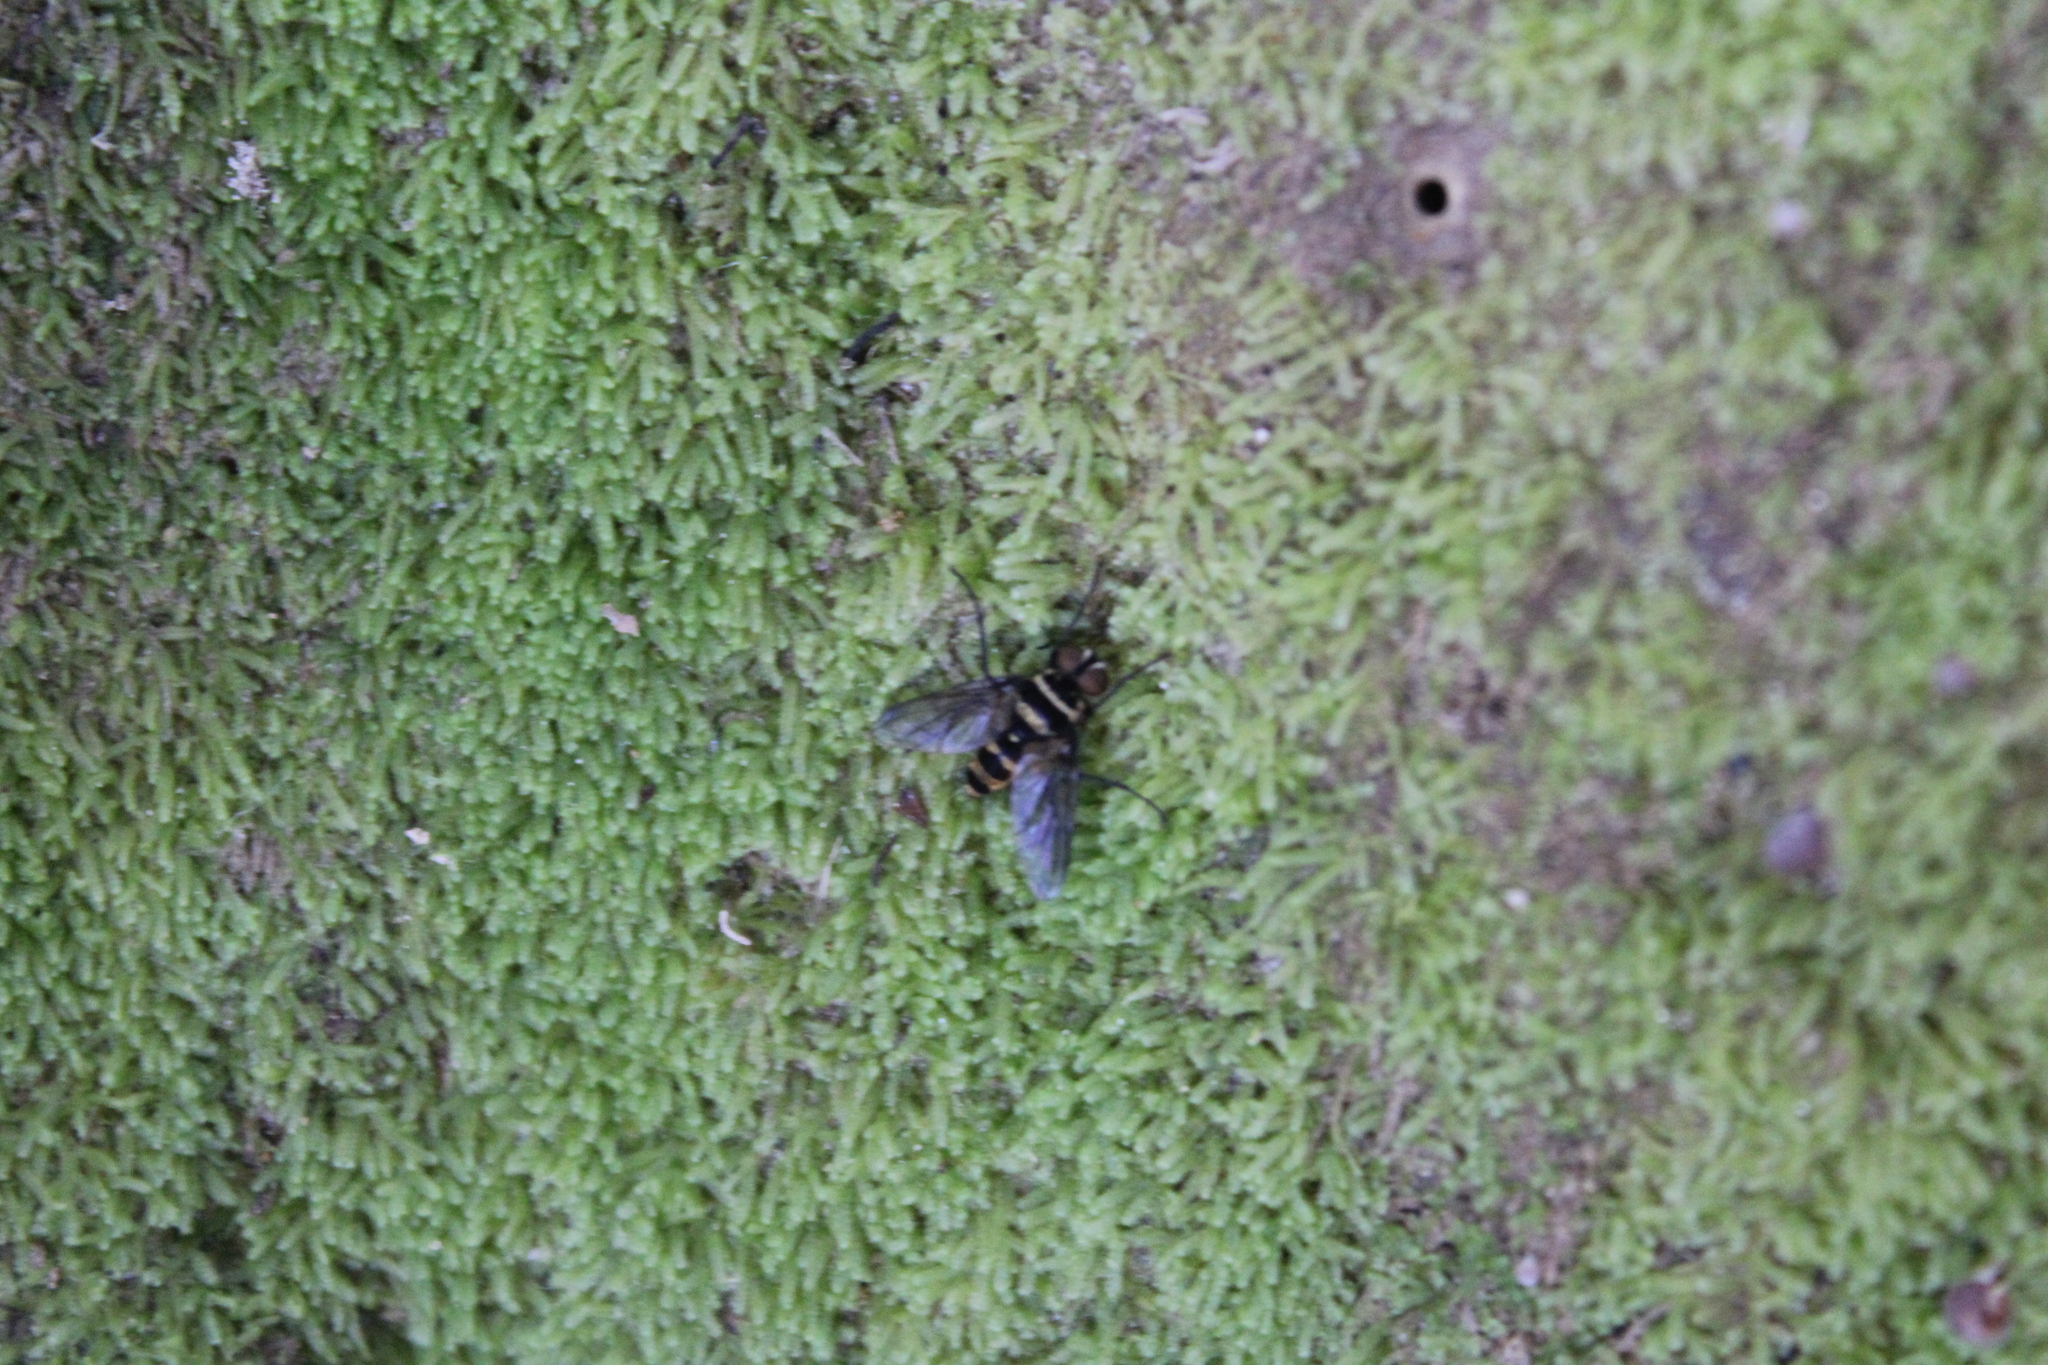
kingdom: Animalia
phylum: Arthropoda
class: Insecta
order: Diptera
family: Tachinidae
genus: Trigonospila
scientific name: Trigonospila brevifacies
